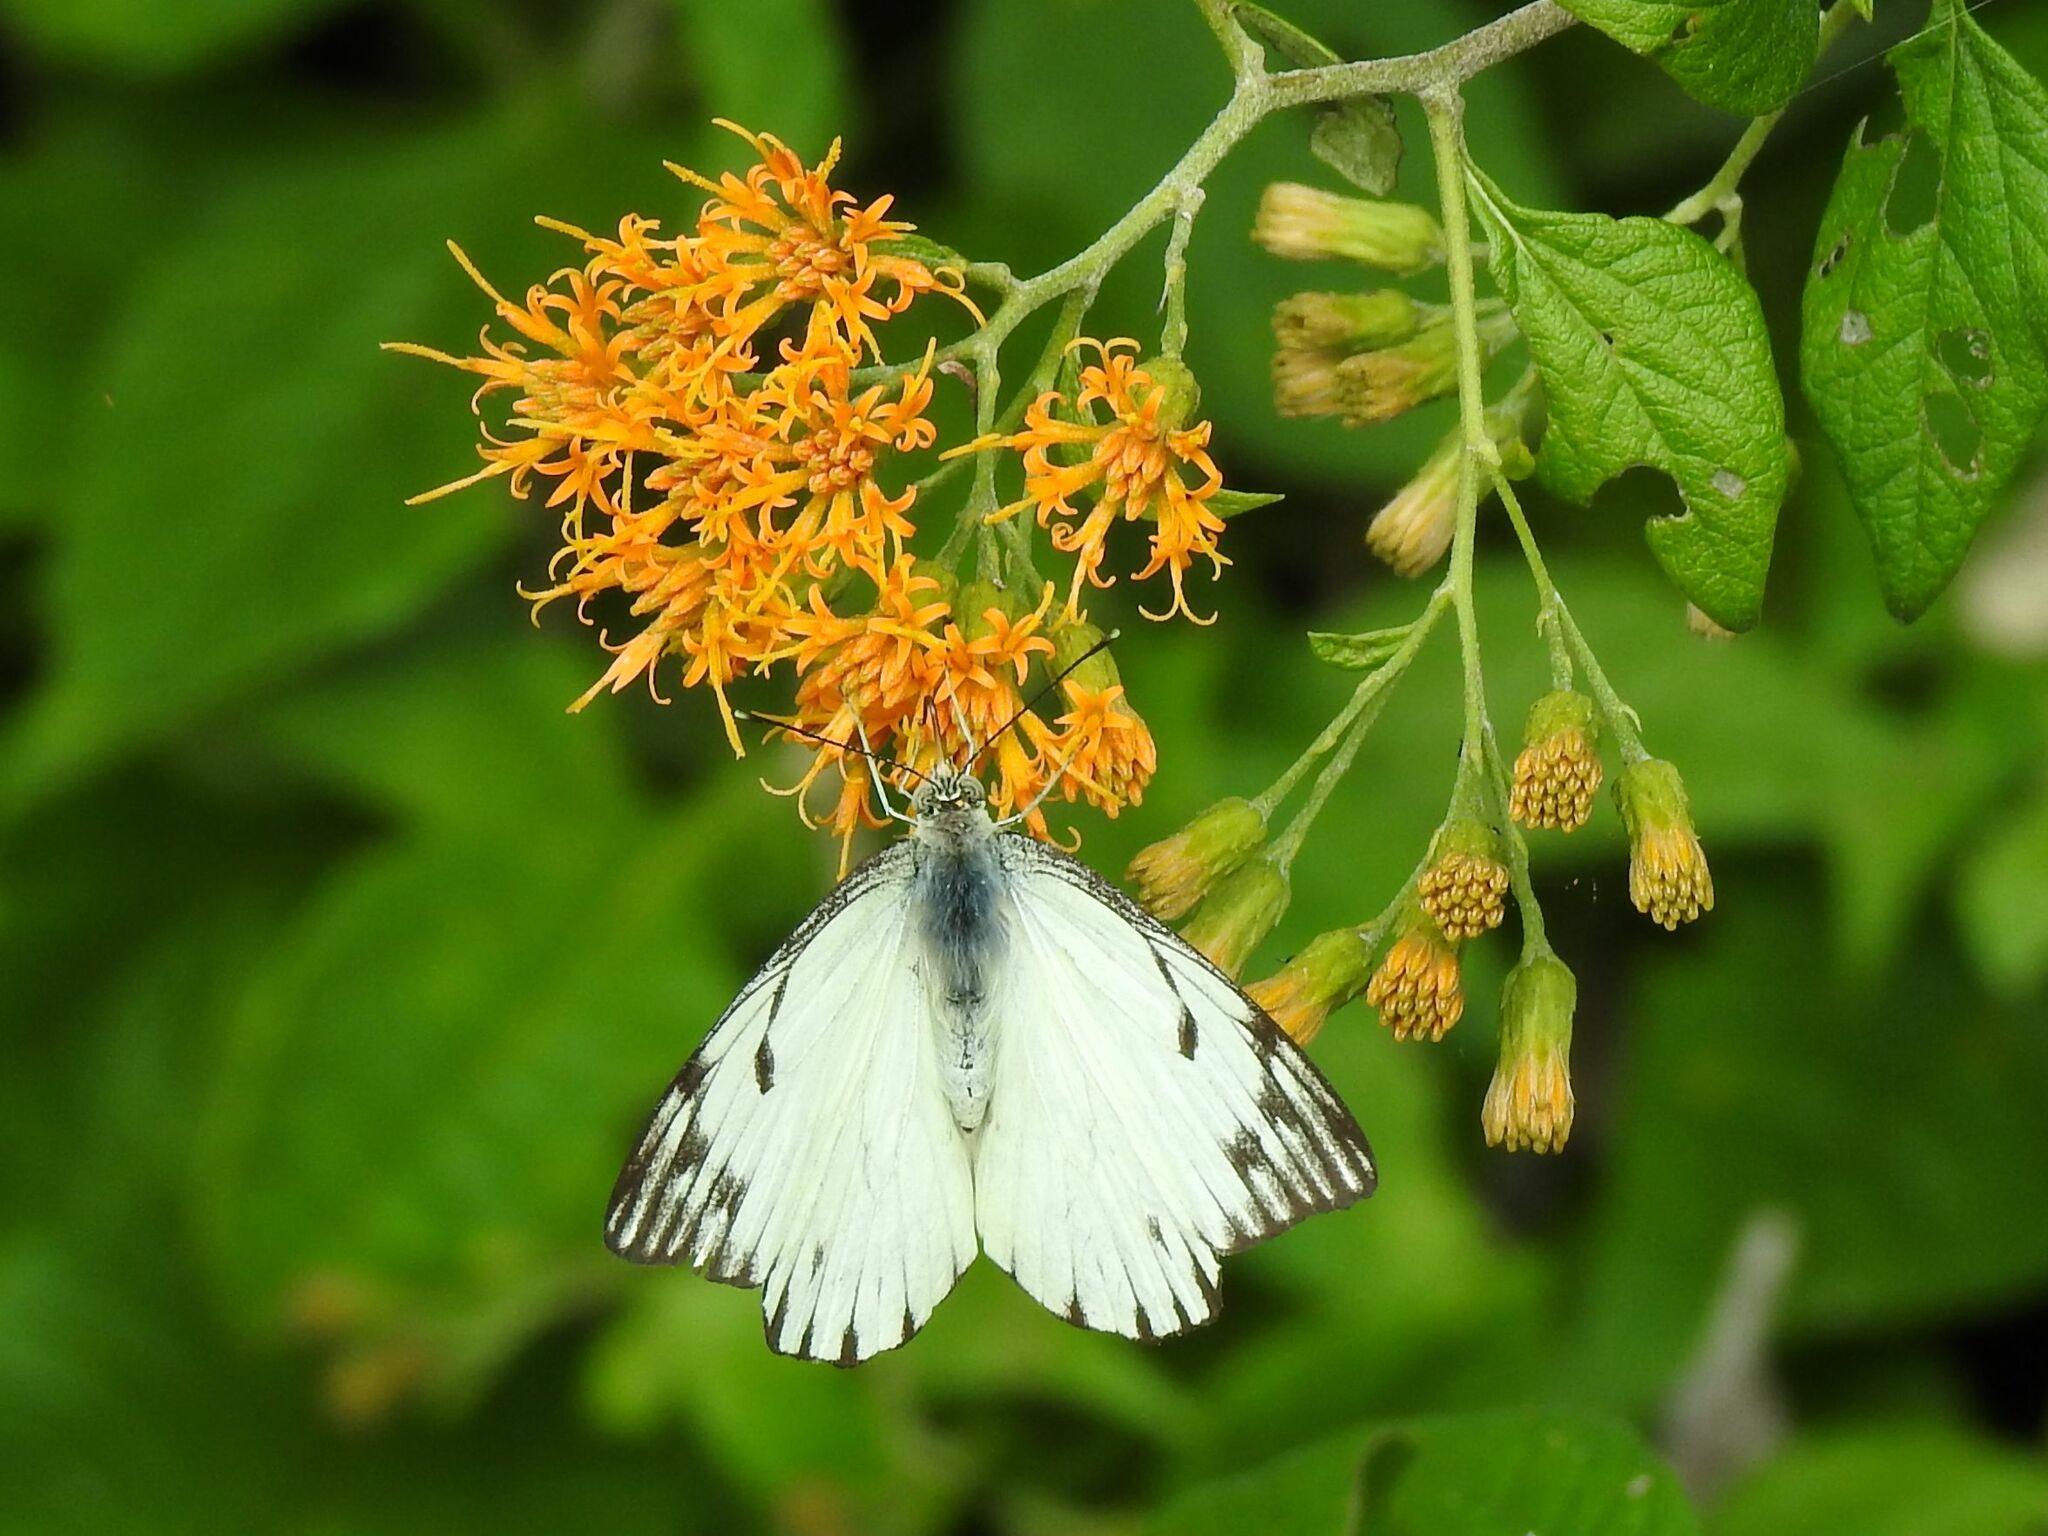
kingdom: Animalia
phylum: Arthropoda
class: Insecta
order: Lepidoptera
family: Pieridae
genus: Belenois
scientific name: Belenois gidica
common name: Pointed caper white
